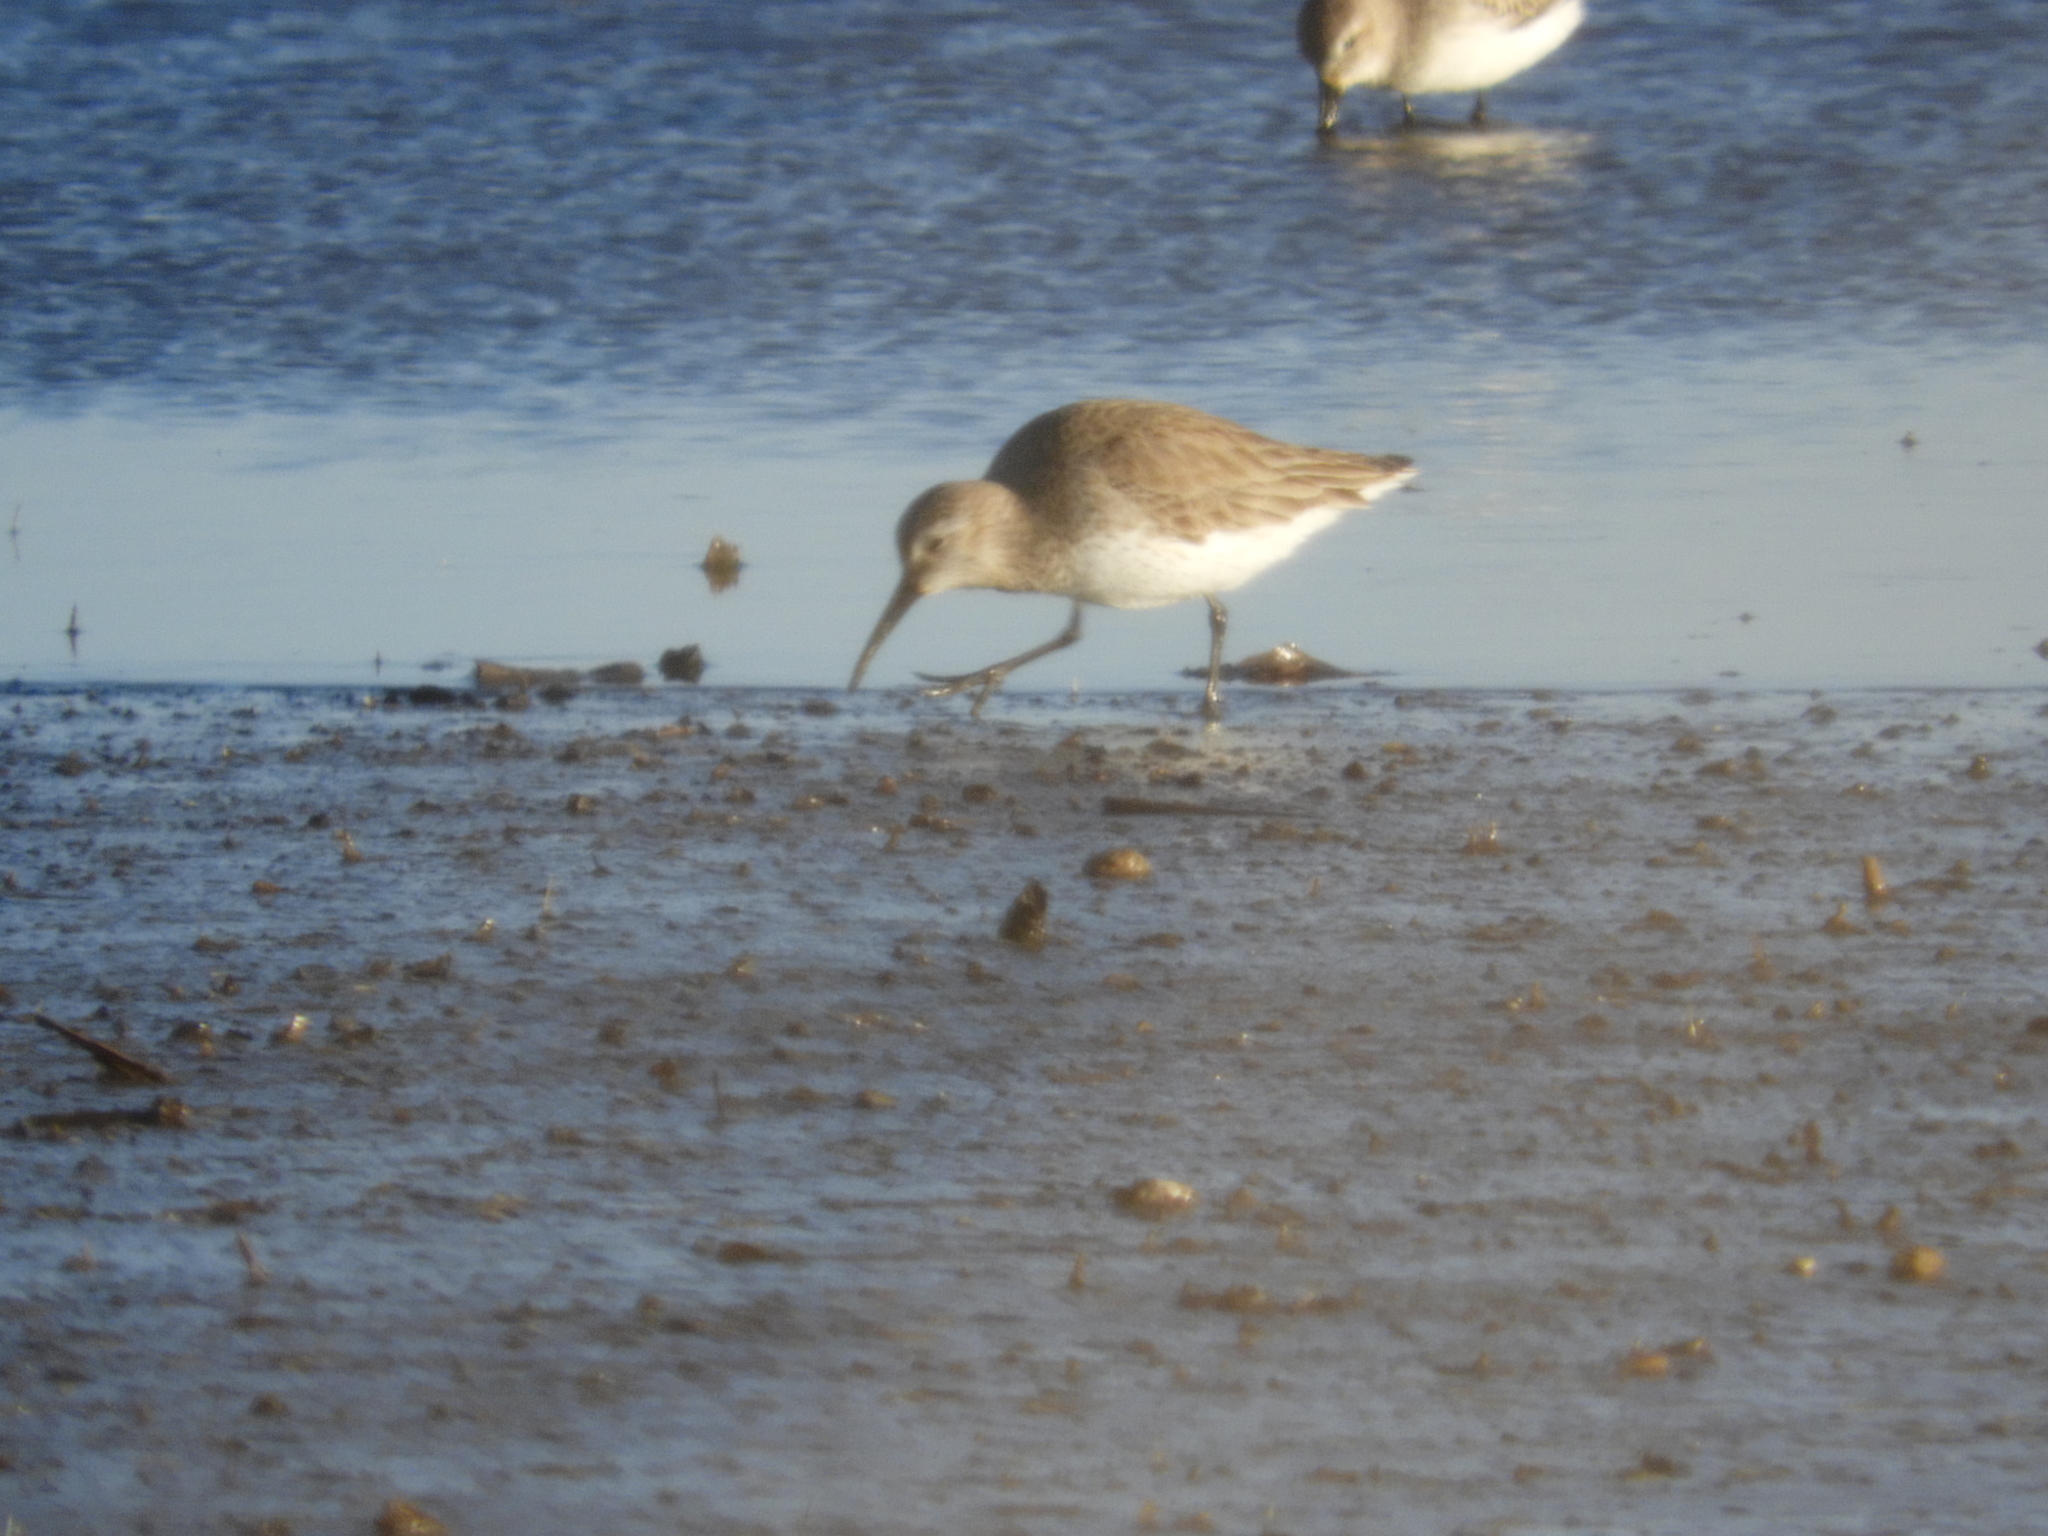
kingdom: Animalia
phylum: Chordata
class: Aves
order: Charadriiformes
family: Scolopacidae
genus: Calidris
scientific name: Calidris alpina
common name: Dunlin
